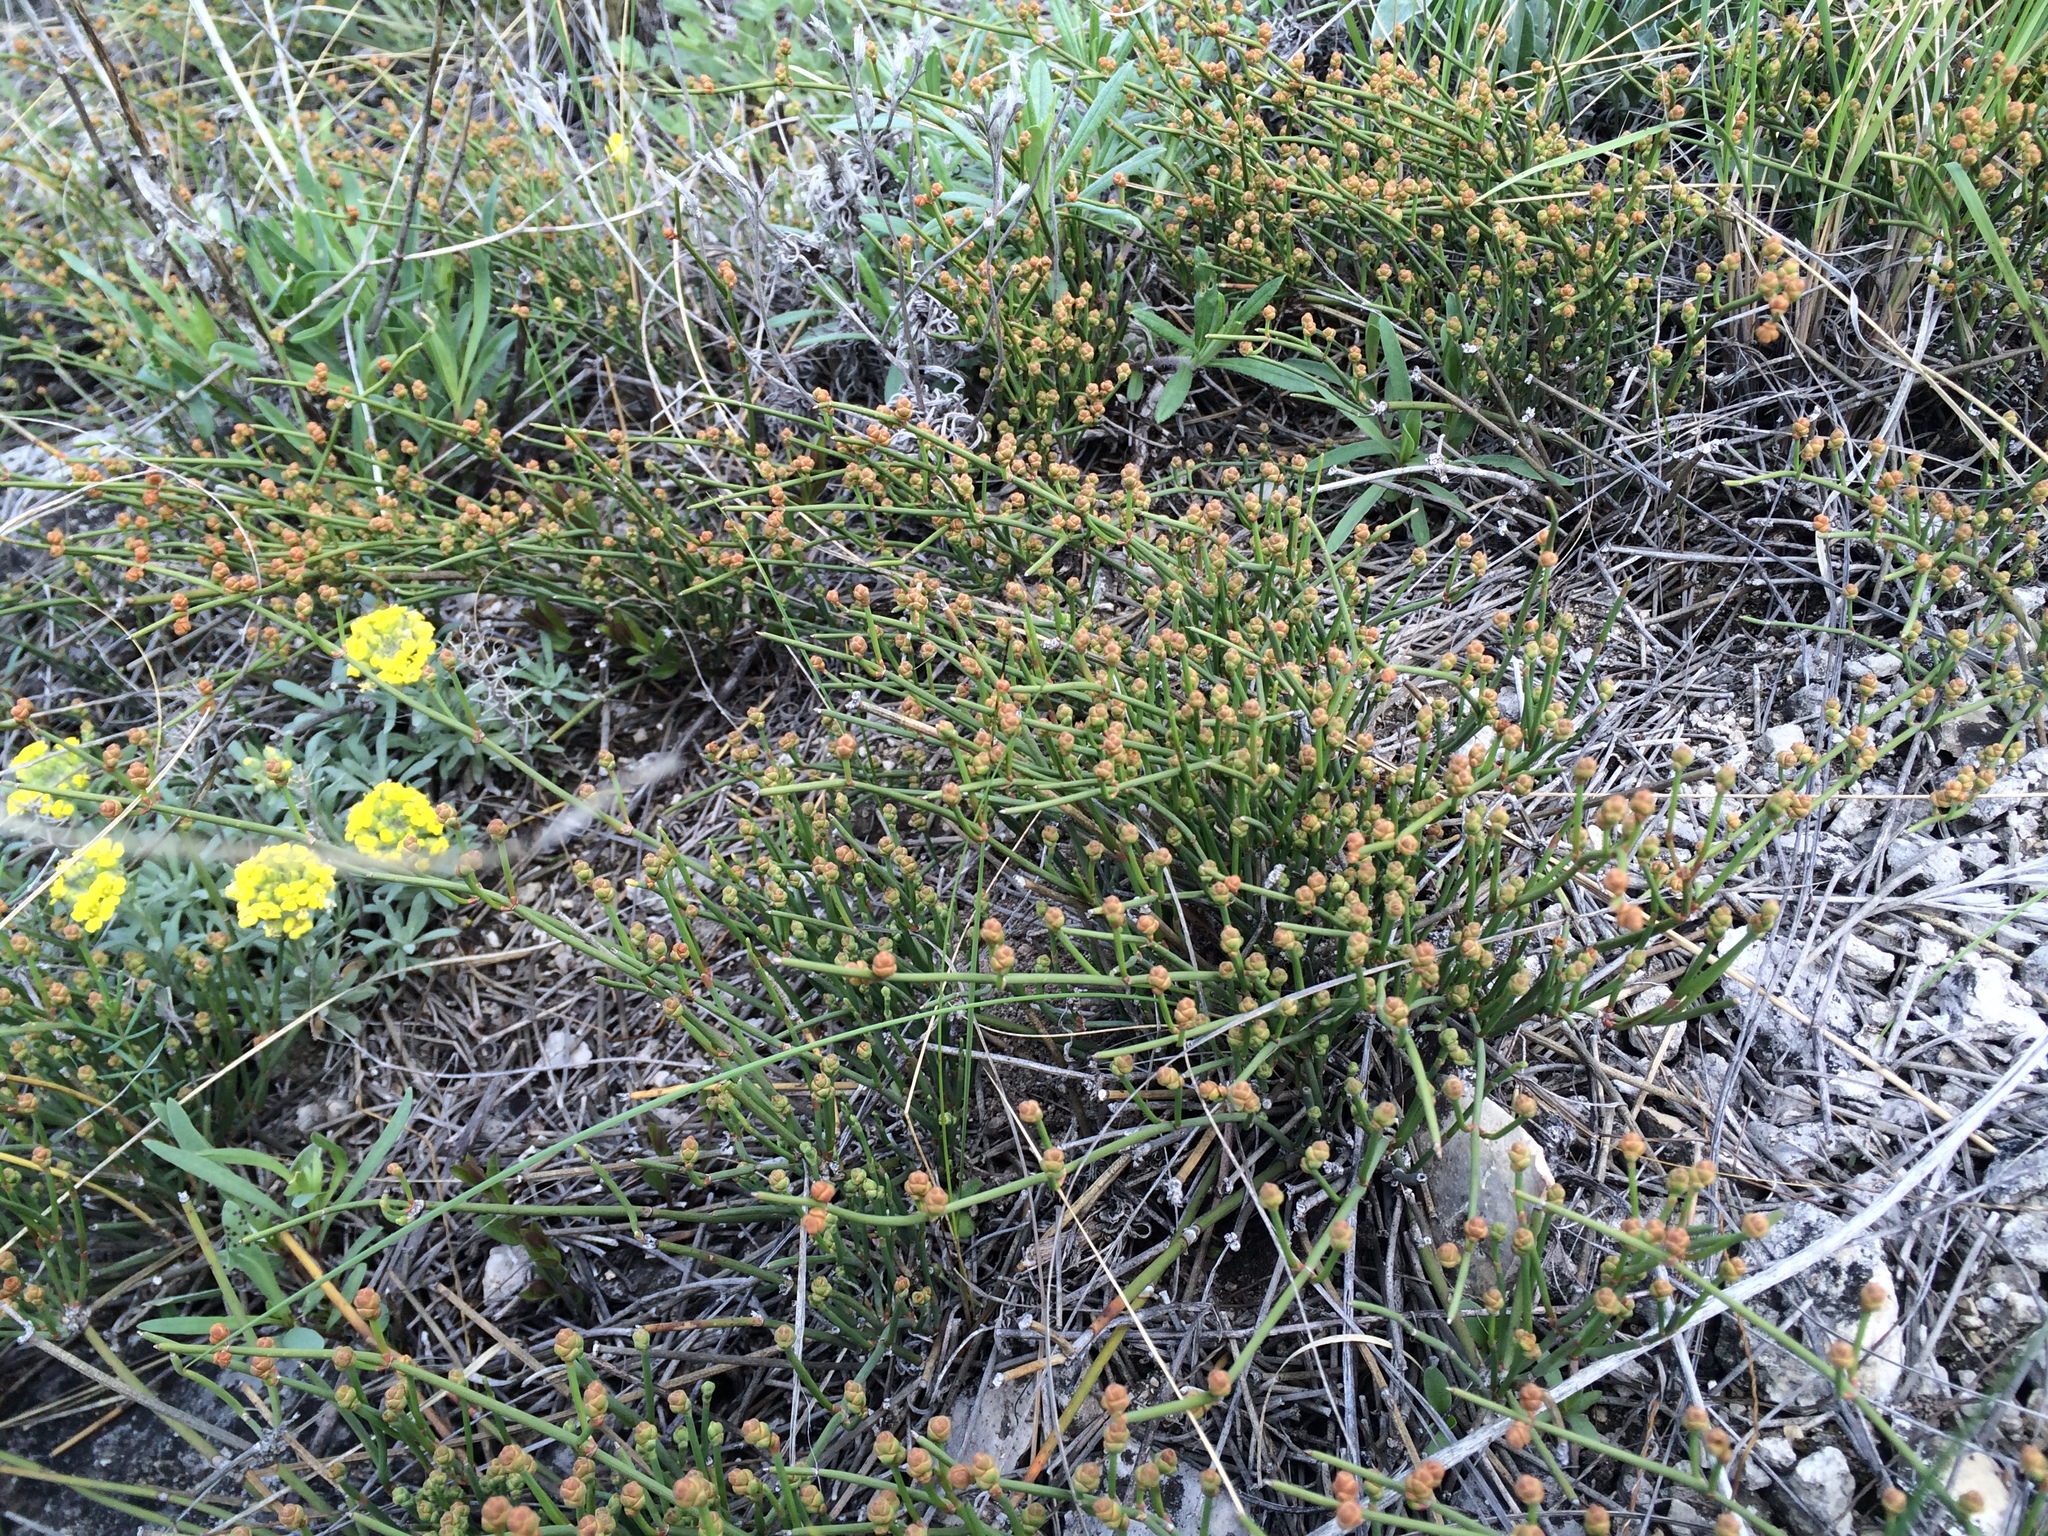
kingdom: Plantae
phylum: Tracheophyta
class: Gnetopsida
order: Ephedrales
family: Ephedraceae
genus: Ephedra
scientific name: Ephedra distachya
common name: Sea grape
